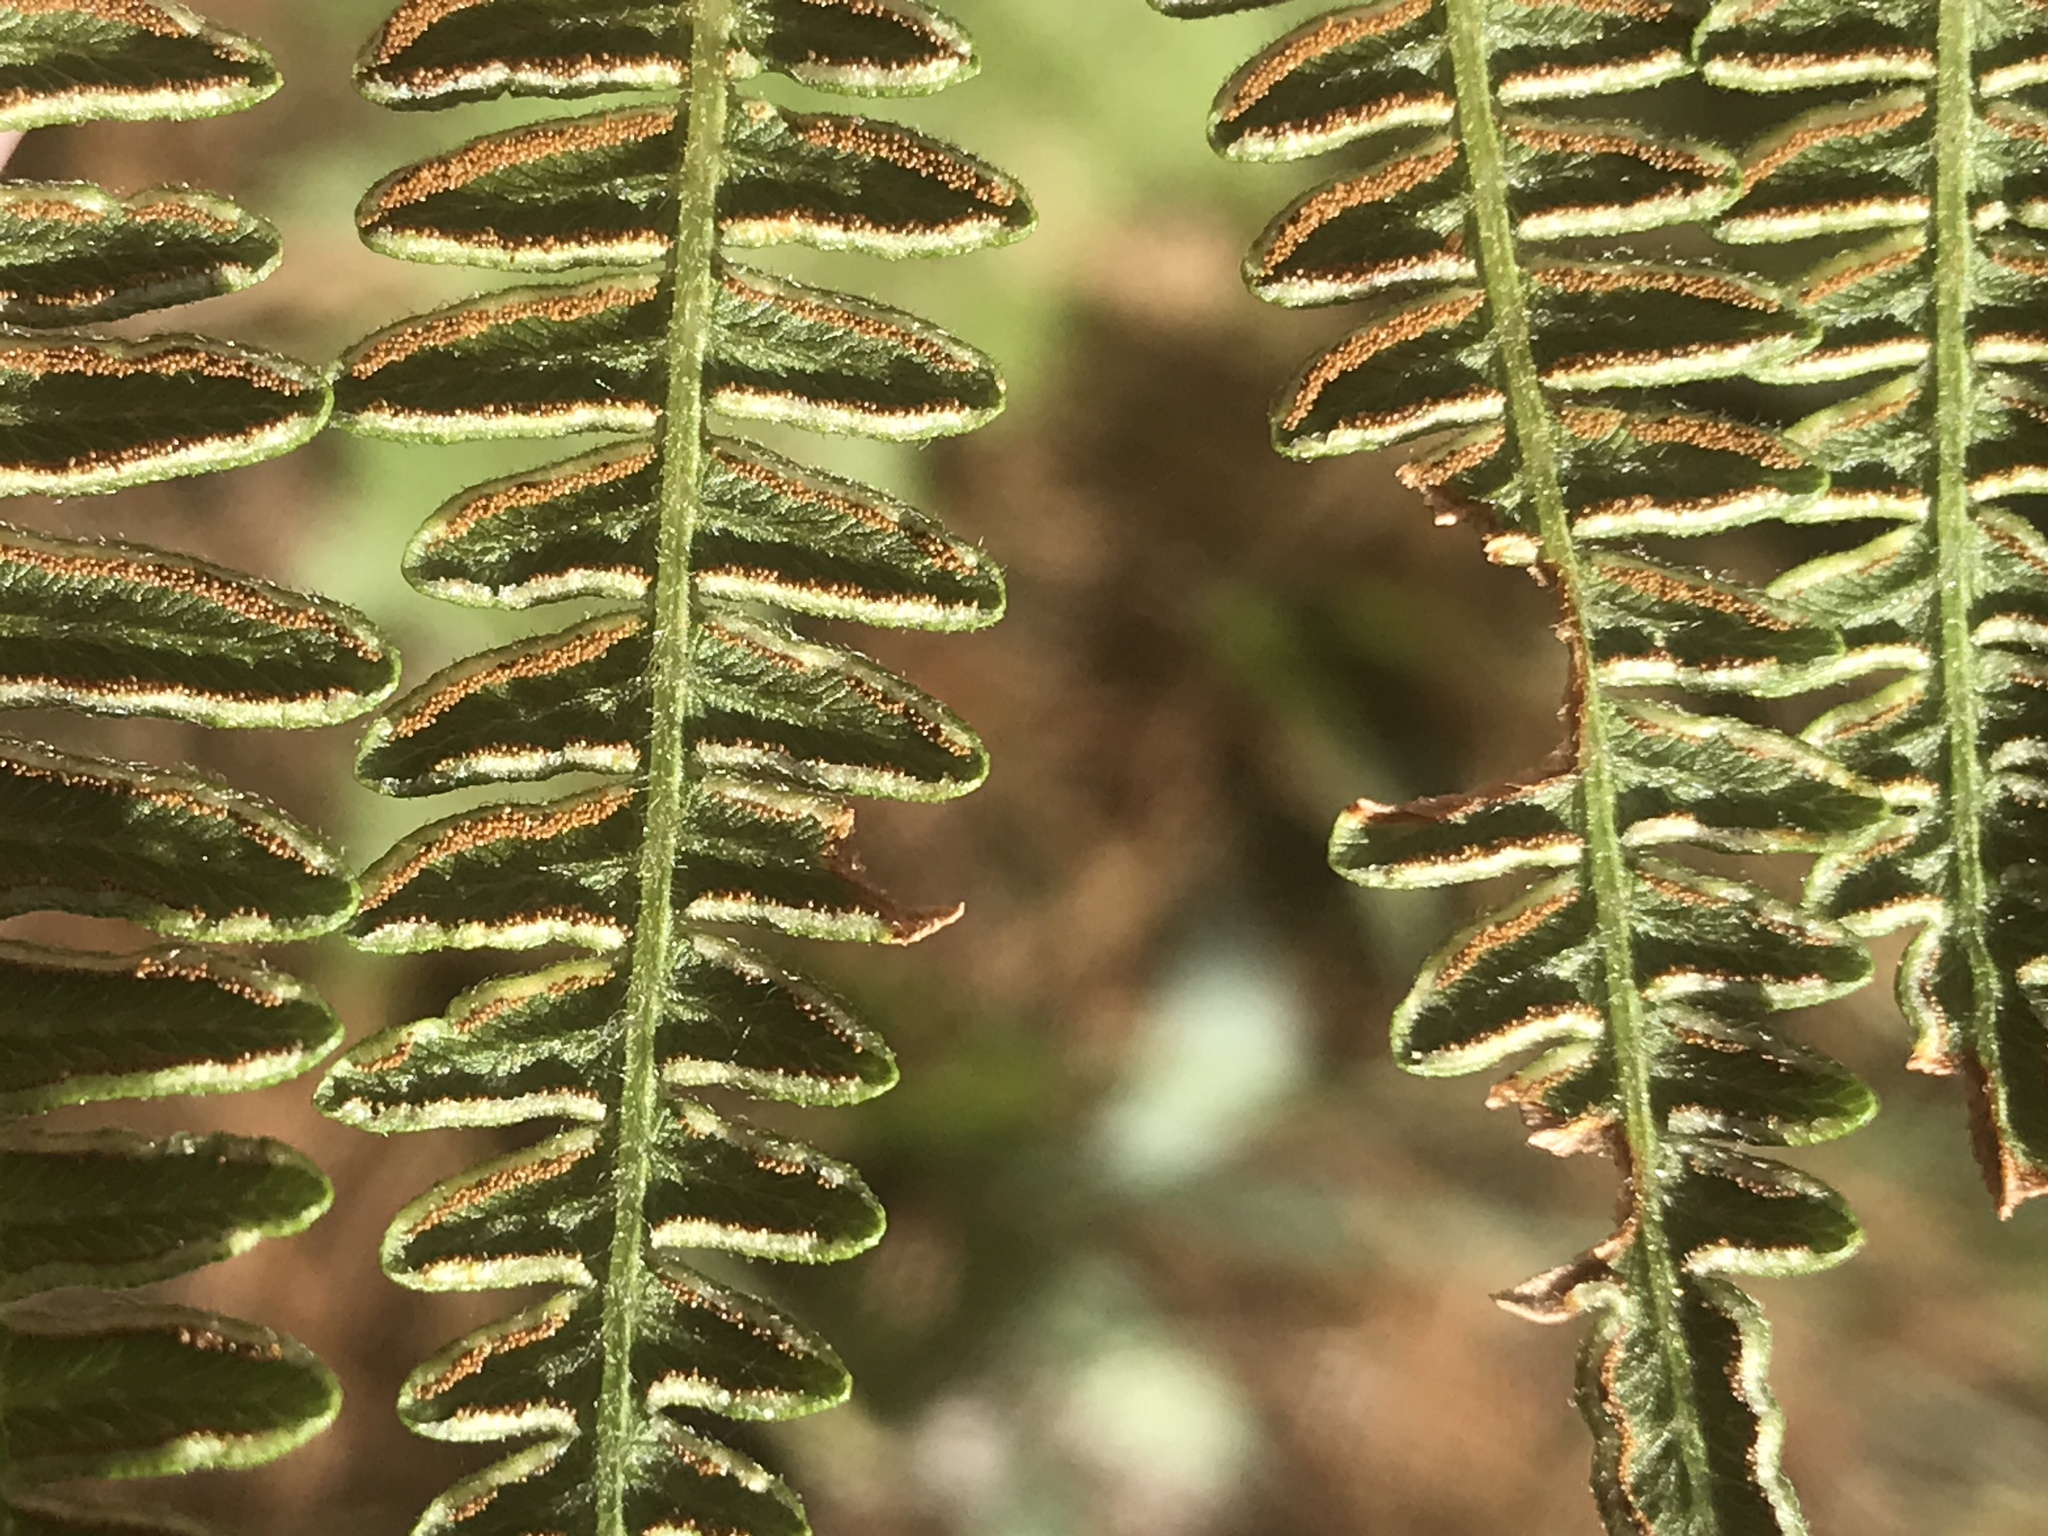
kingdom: Plantae
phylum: Tracheophyta
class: Polypodiopsida
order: Polypodiales
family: Dennstaedtiaceae
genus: Pteridium
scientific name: Pteridium aquilinum
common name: Bracken
